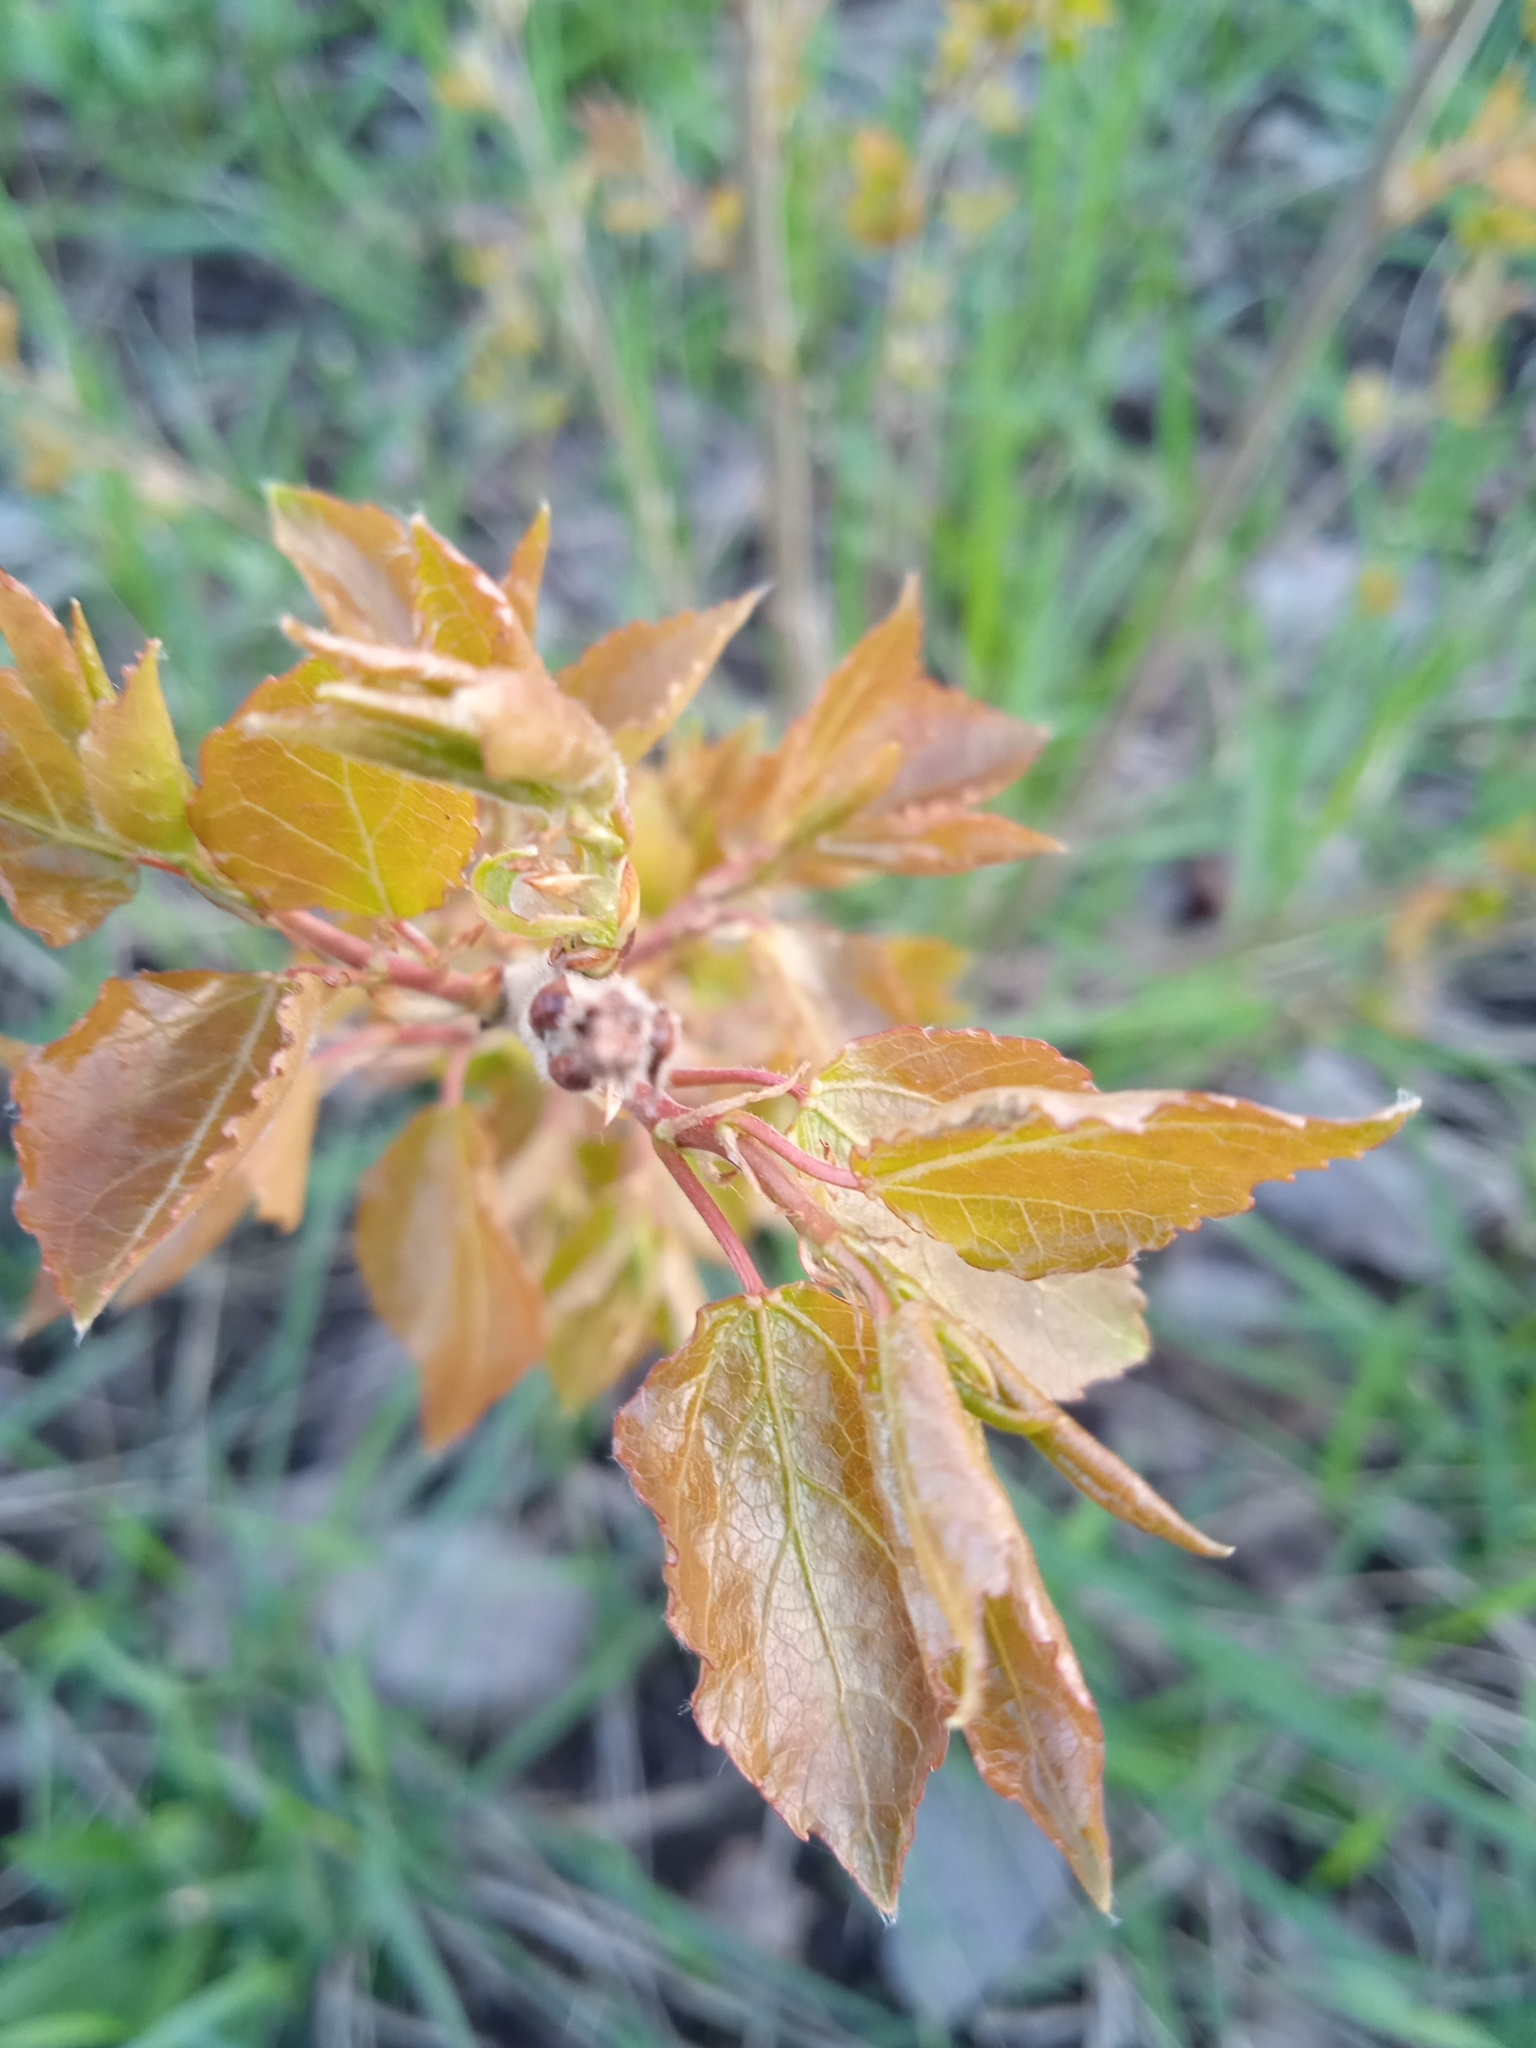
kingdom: Plantae
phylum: Tracheophyta
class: Magnoliopsida
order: Malpighiales
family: Salicaceae
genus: Populus
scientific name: Populus tremula
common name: European aspen
